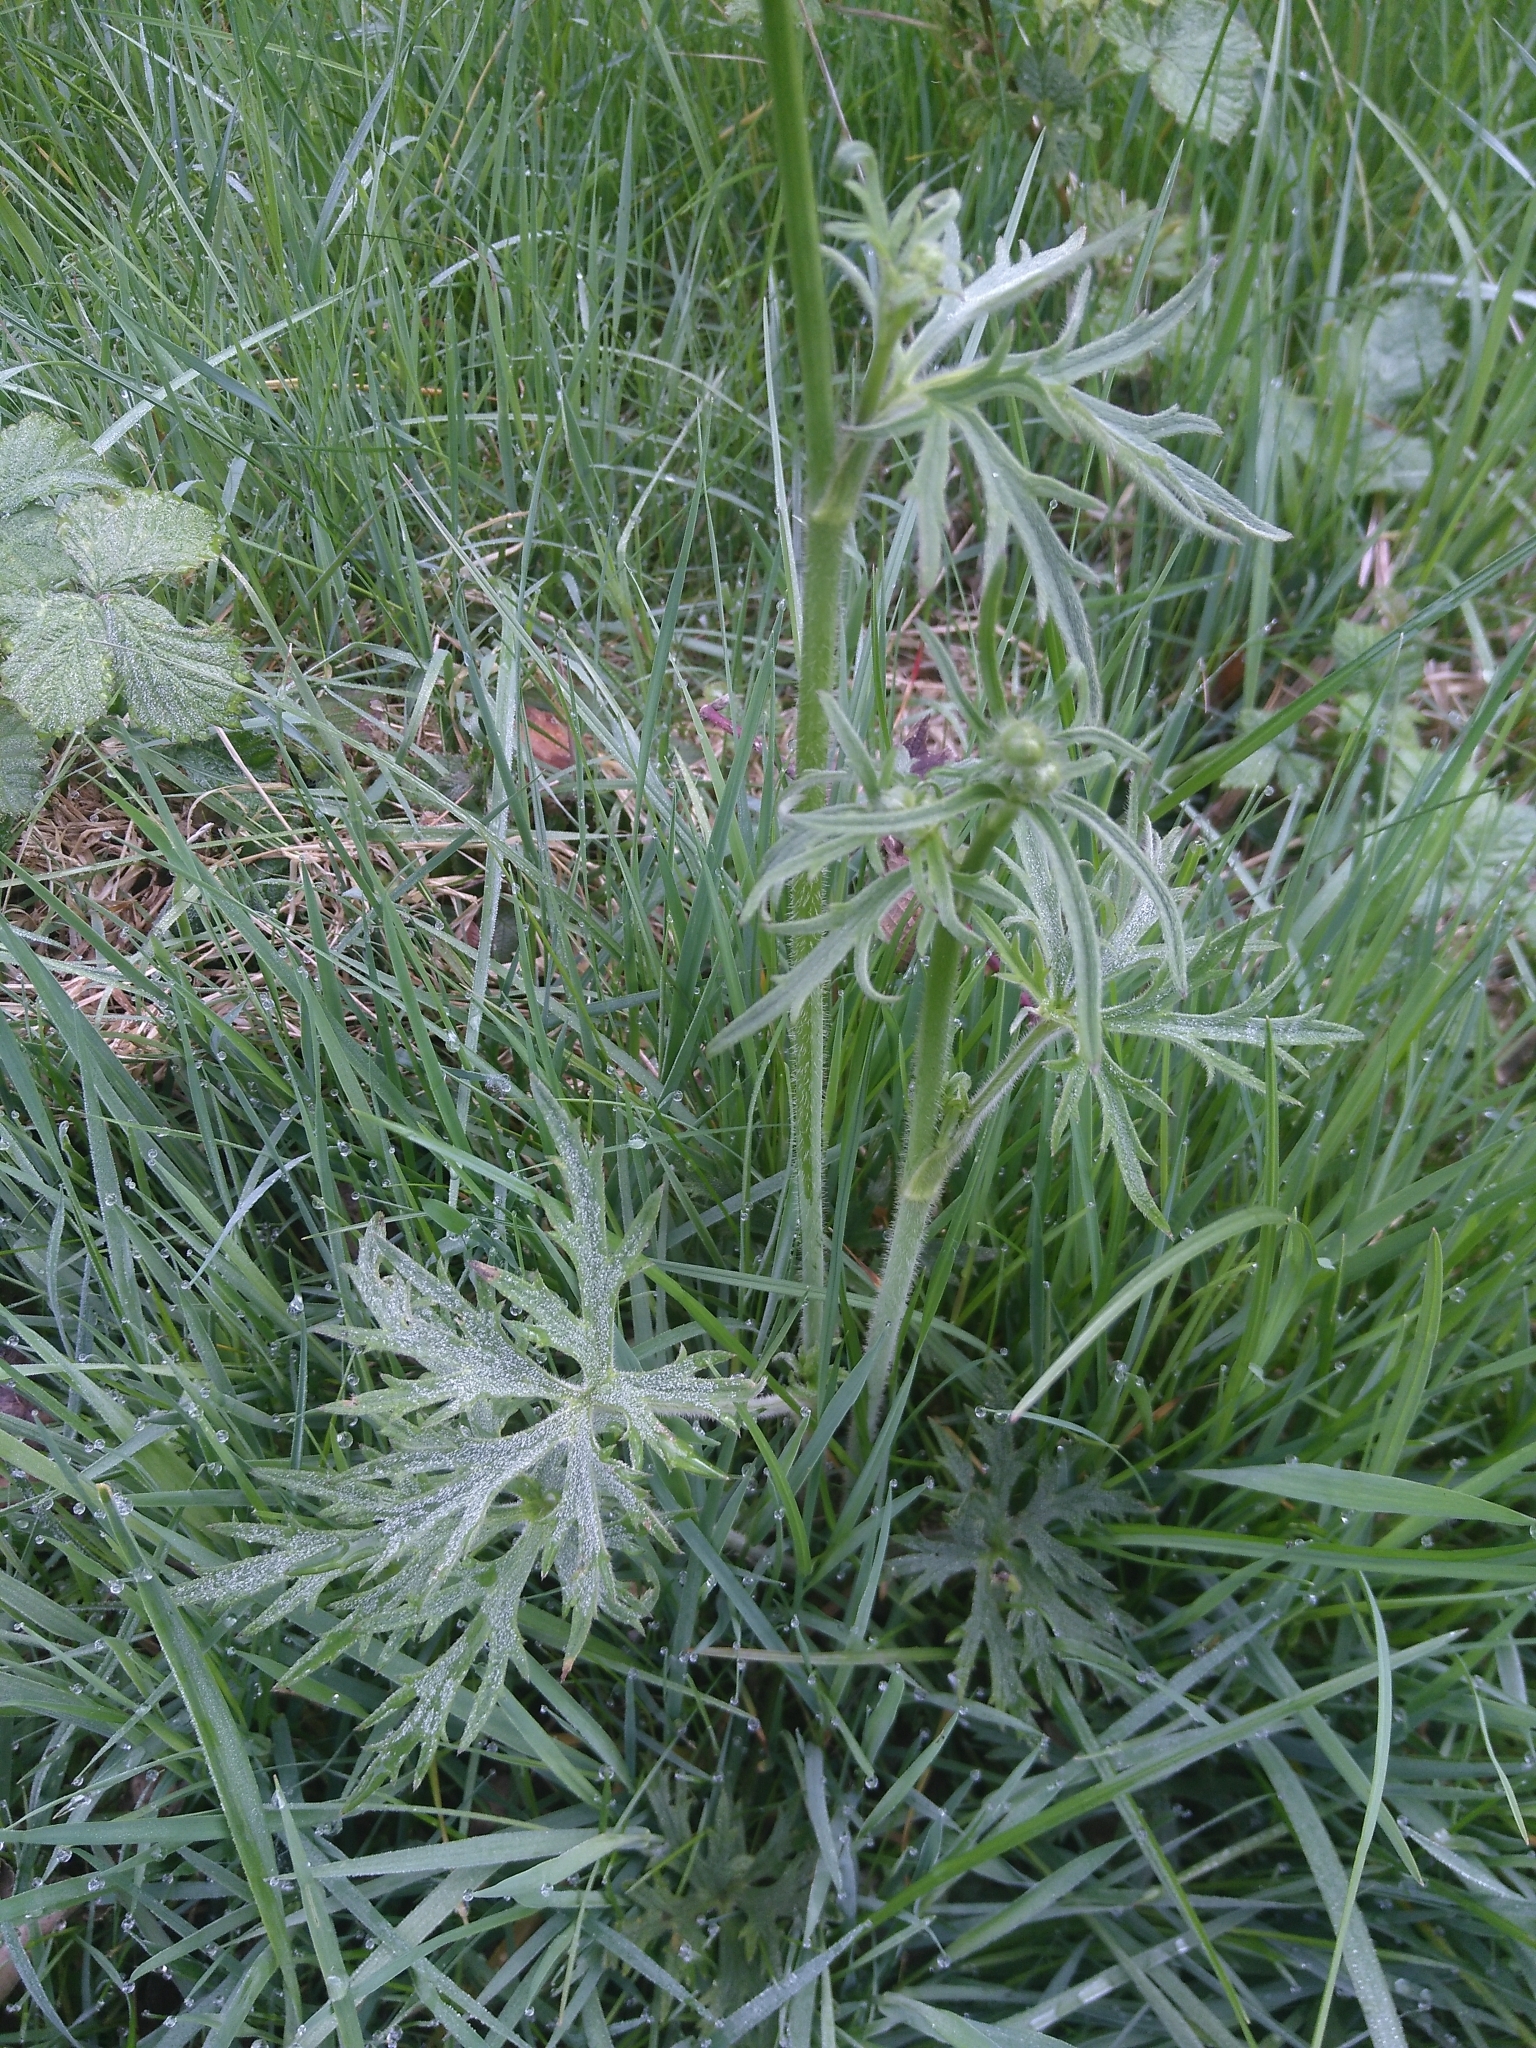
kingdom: Plantae
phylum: Tracheophyta
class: Magnoliopsida
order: Ranunculales
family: Ranunculaceae
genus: Ranunculus
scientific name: Ranunculus acris
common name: Meadow buttercup
